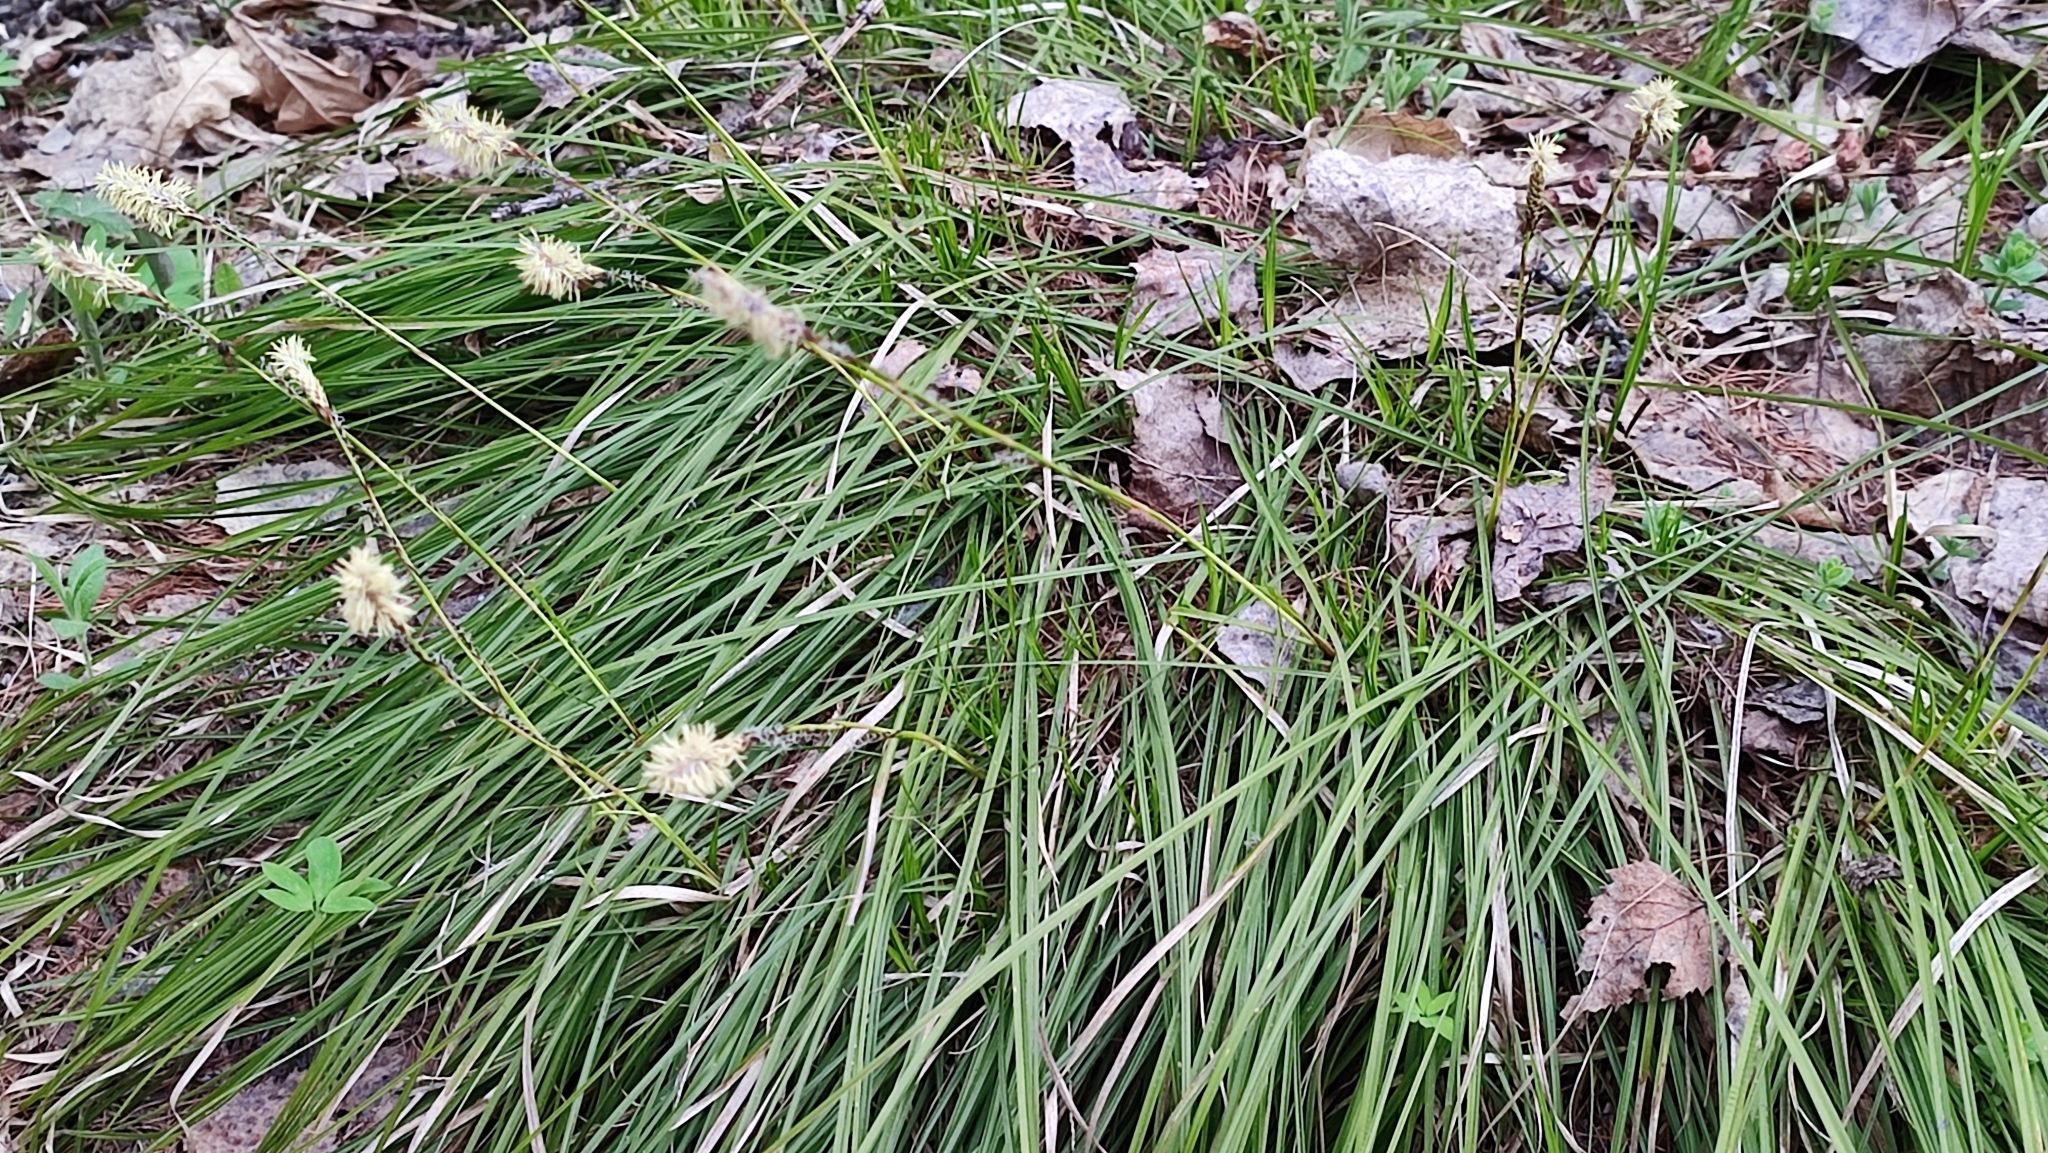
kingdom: Plantae
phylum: Tracheophyta
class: Liliopsida
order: Poales
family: Cyperaceae
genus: Carex
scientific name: Carex pediformis
